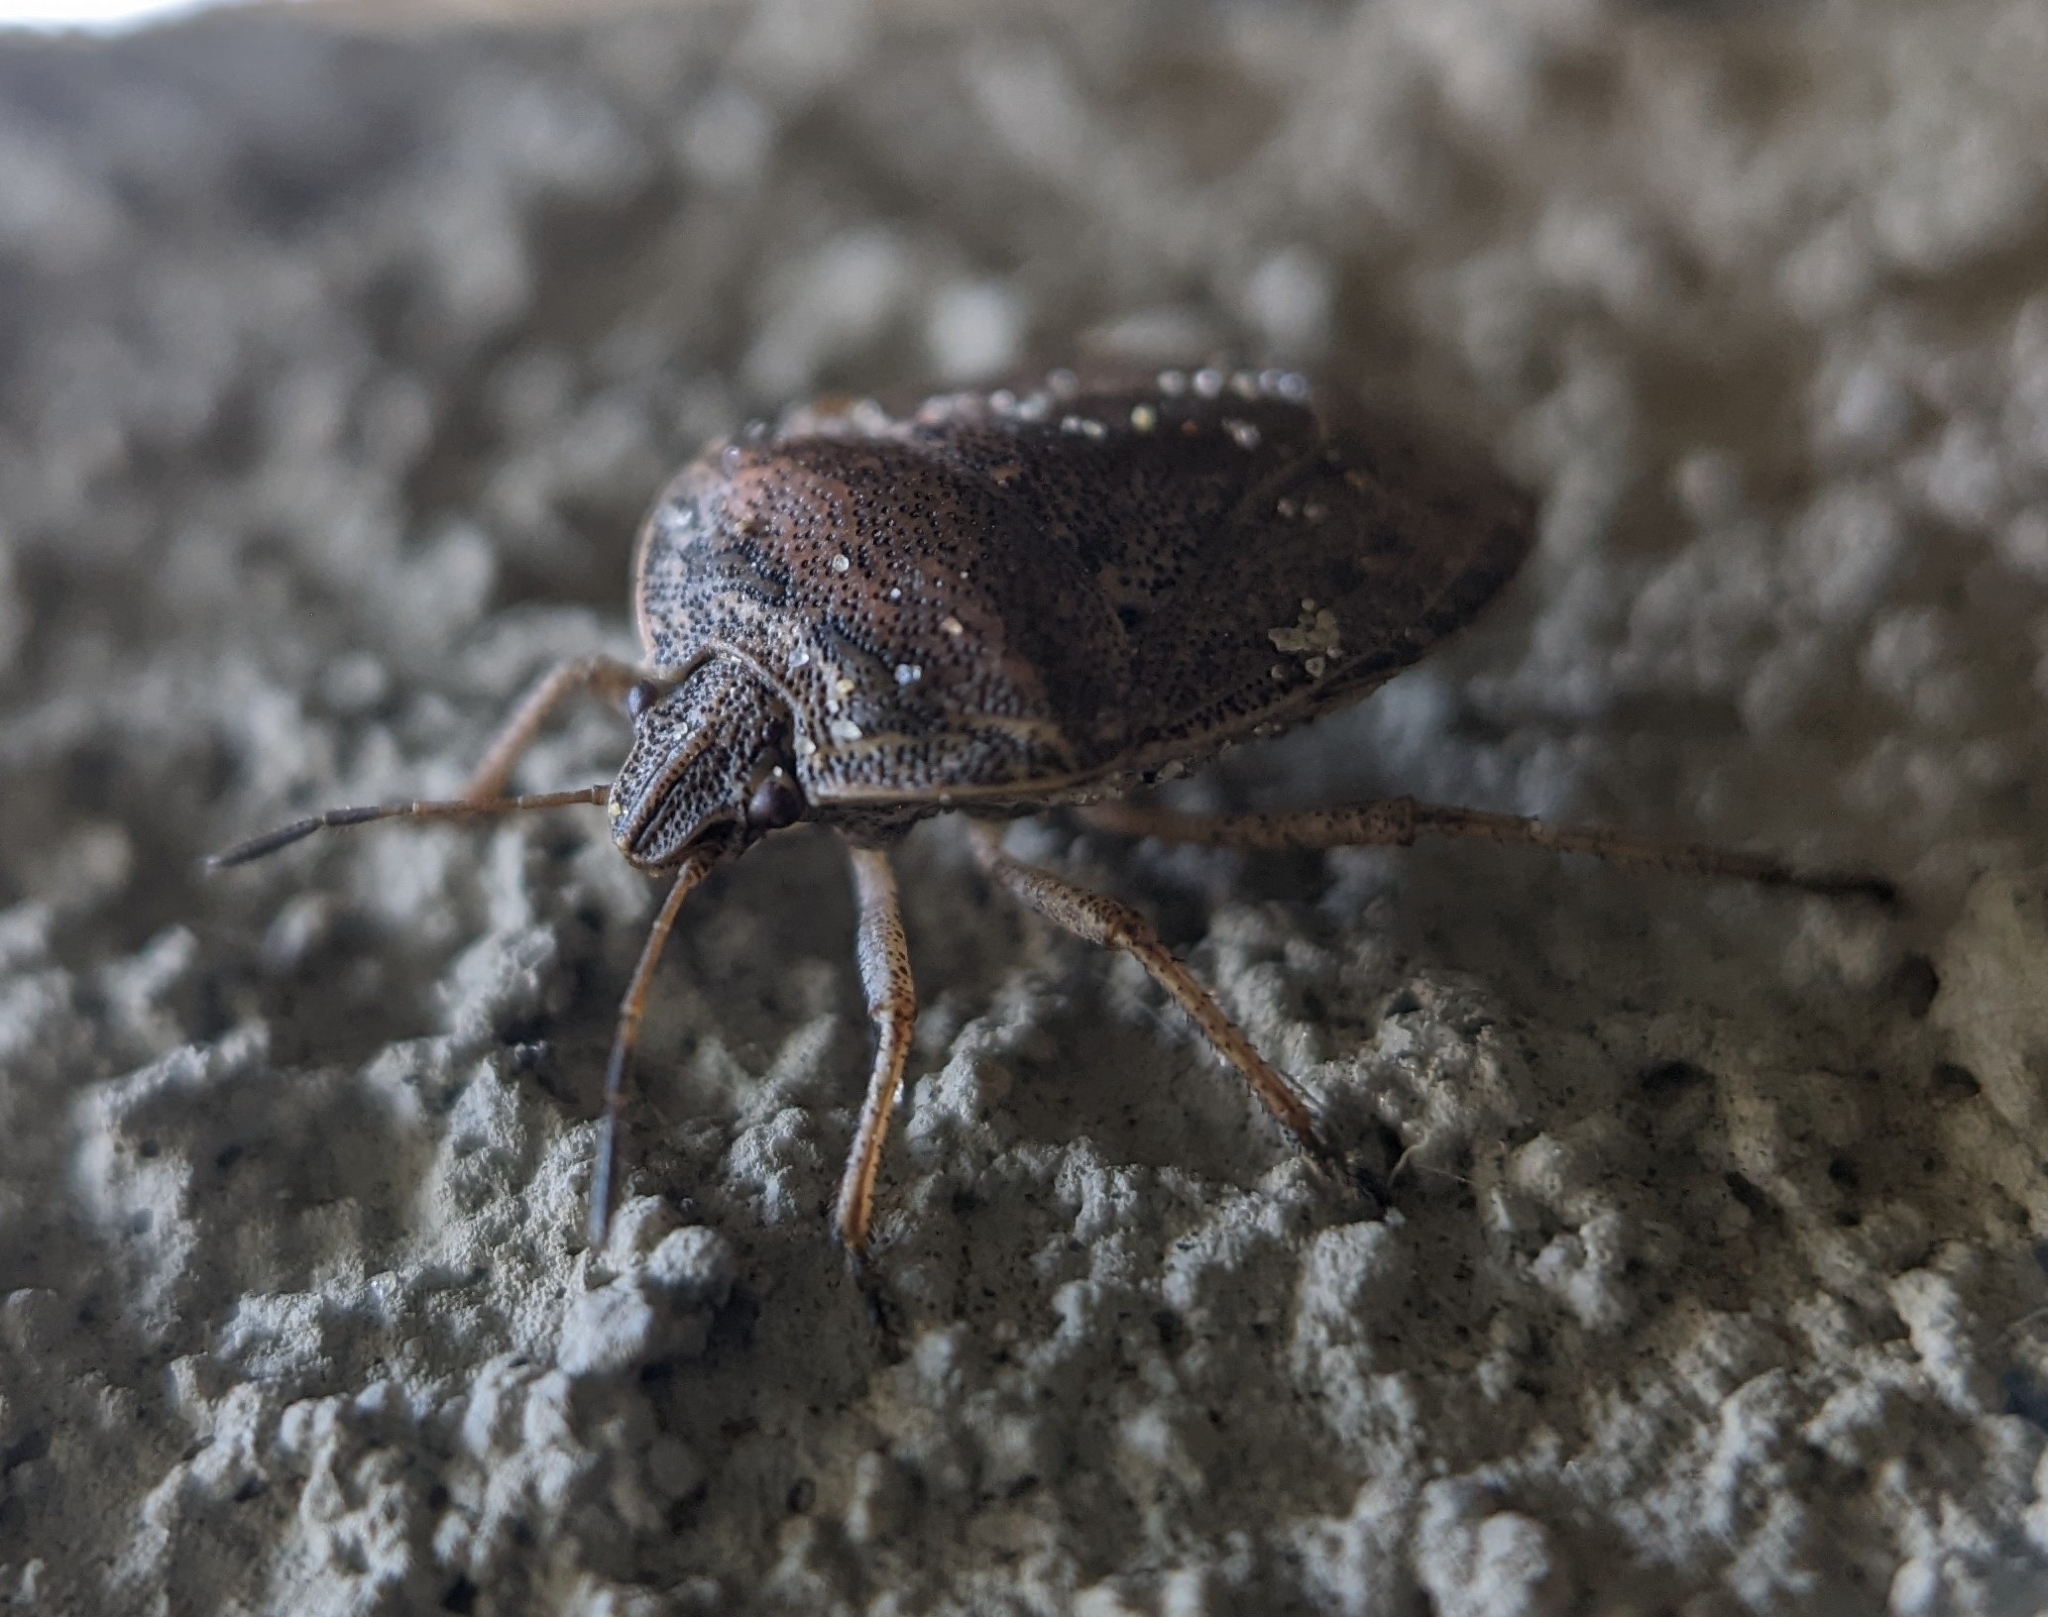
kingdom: Animalia
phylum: Arthropoda
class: Insecta
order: Hemiptera
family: Pentatomidae
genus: Hymenarcys
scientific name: Hymenarcys nervosa
